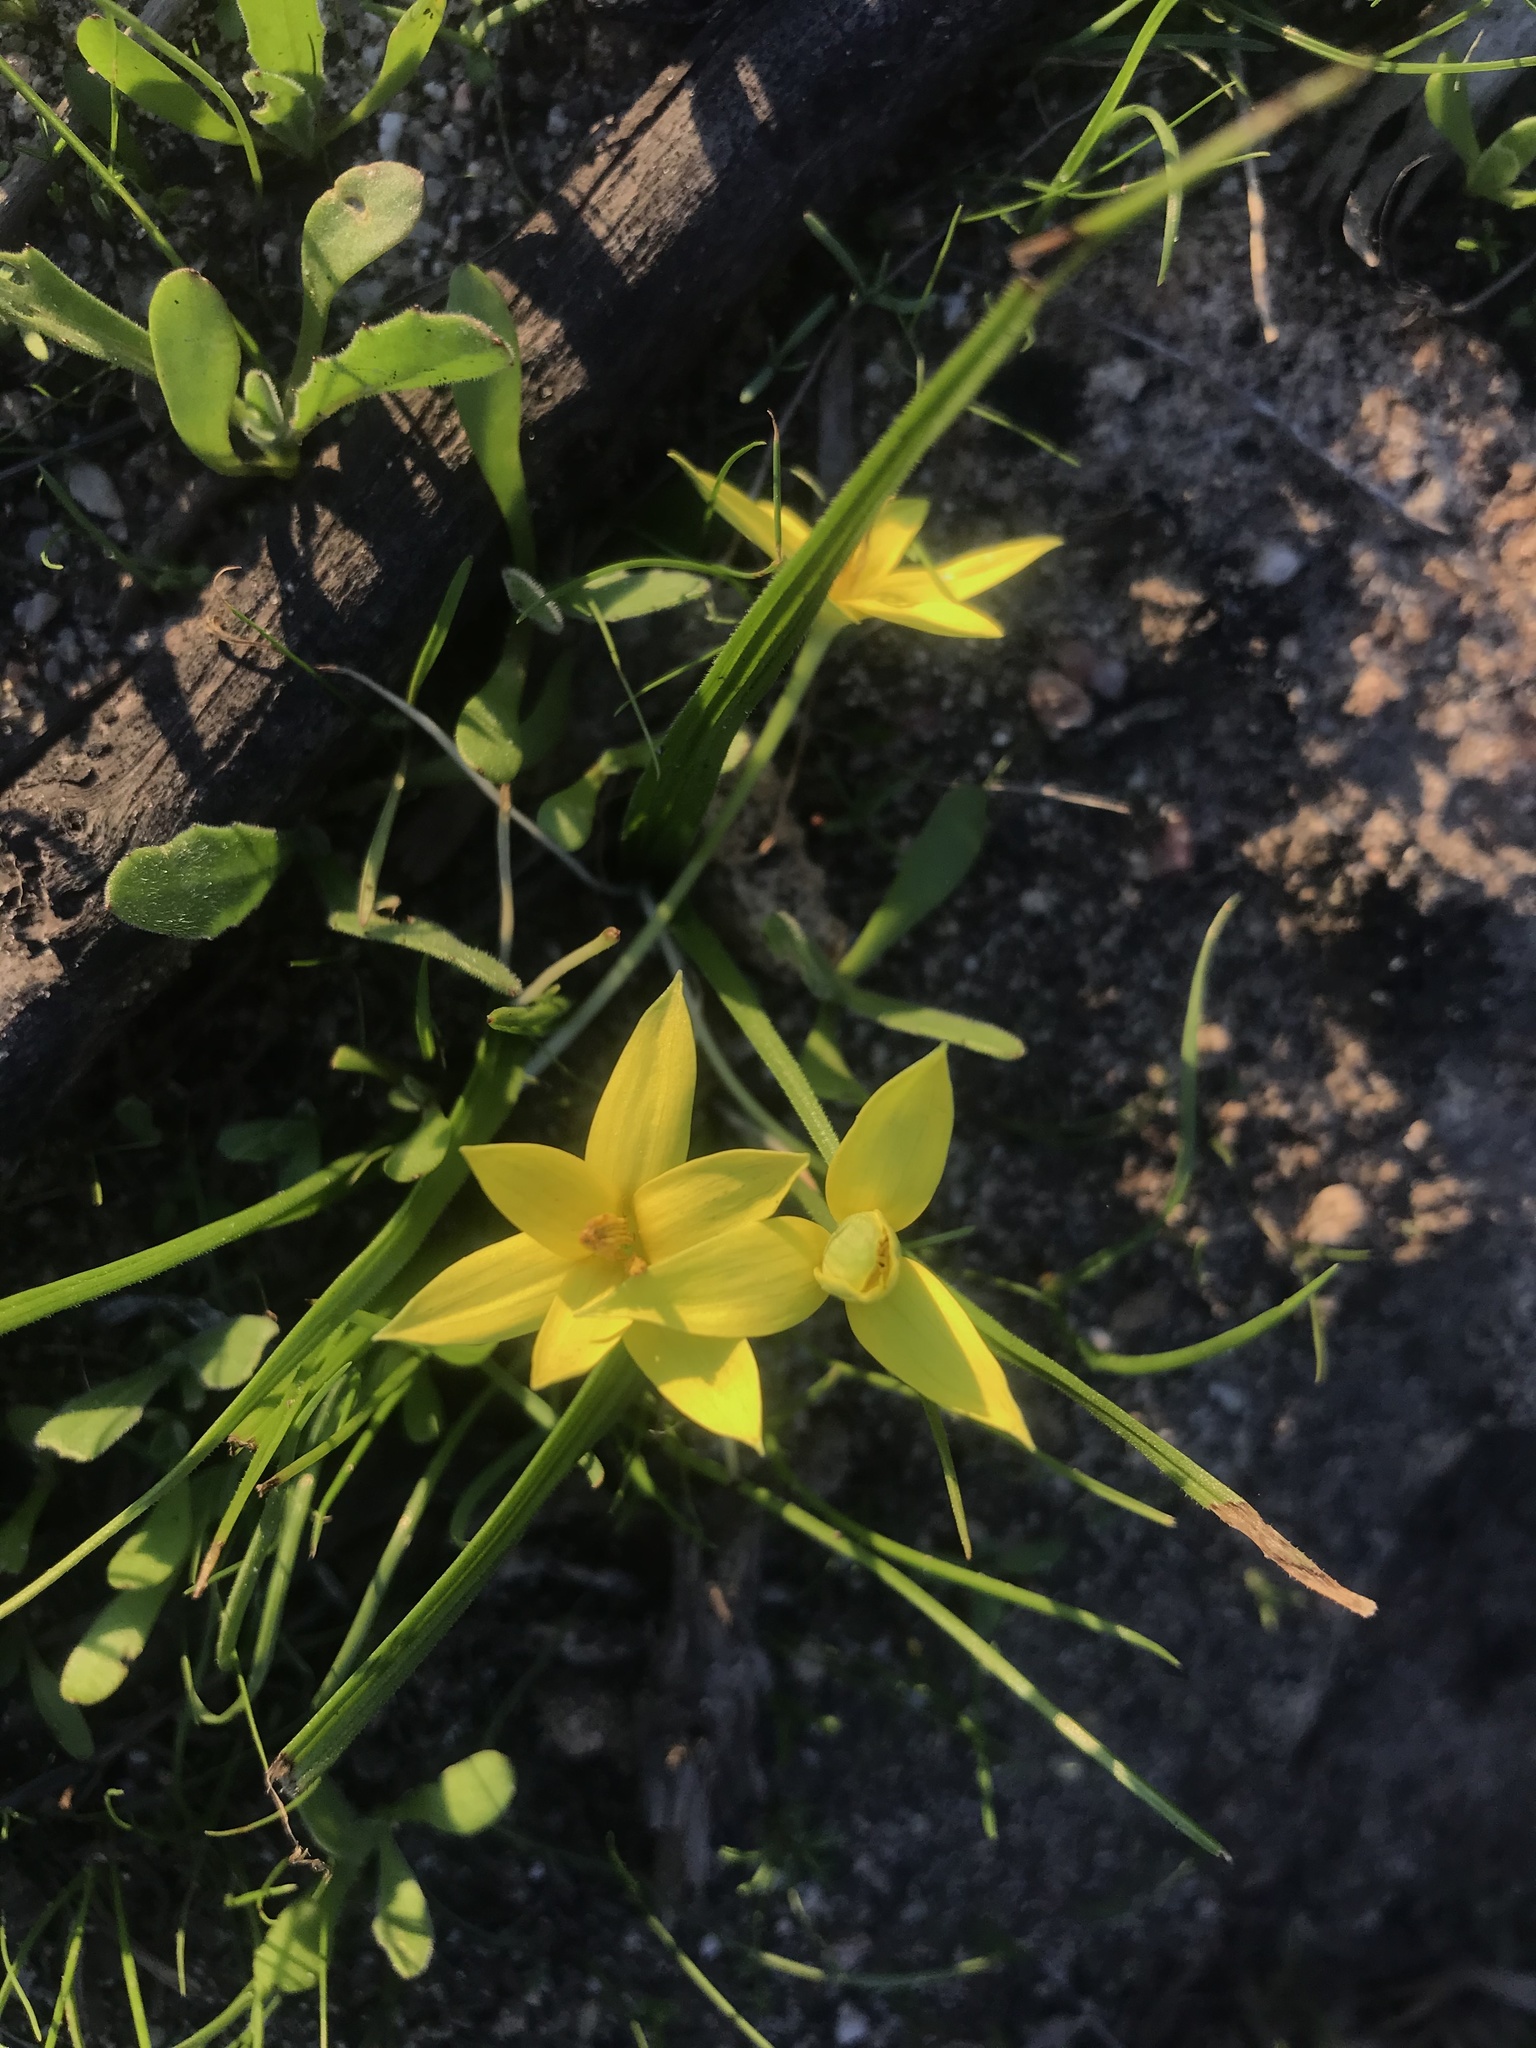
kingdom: Plantae
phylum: Tracheophyta
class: Liliopsida
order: Asparagales
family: Hypoxidaceae
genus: Empodium
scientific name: Empodium plicatum
